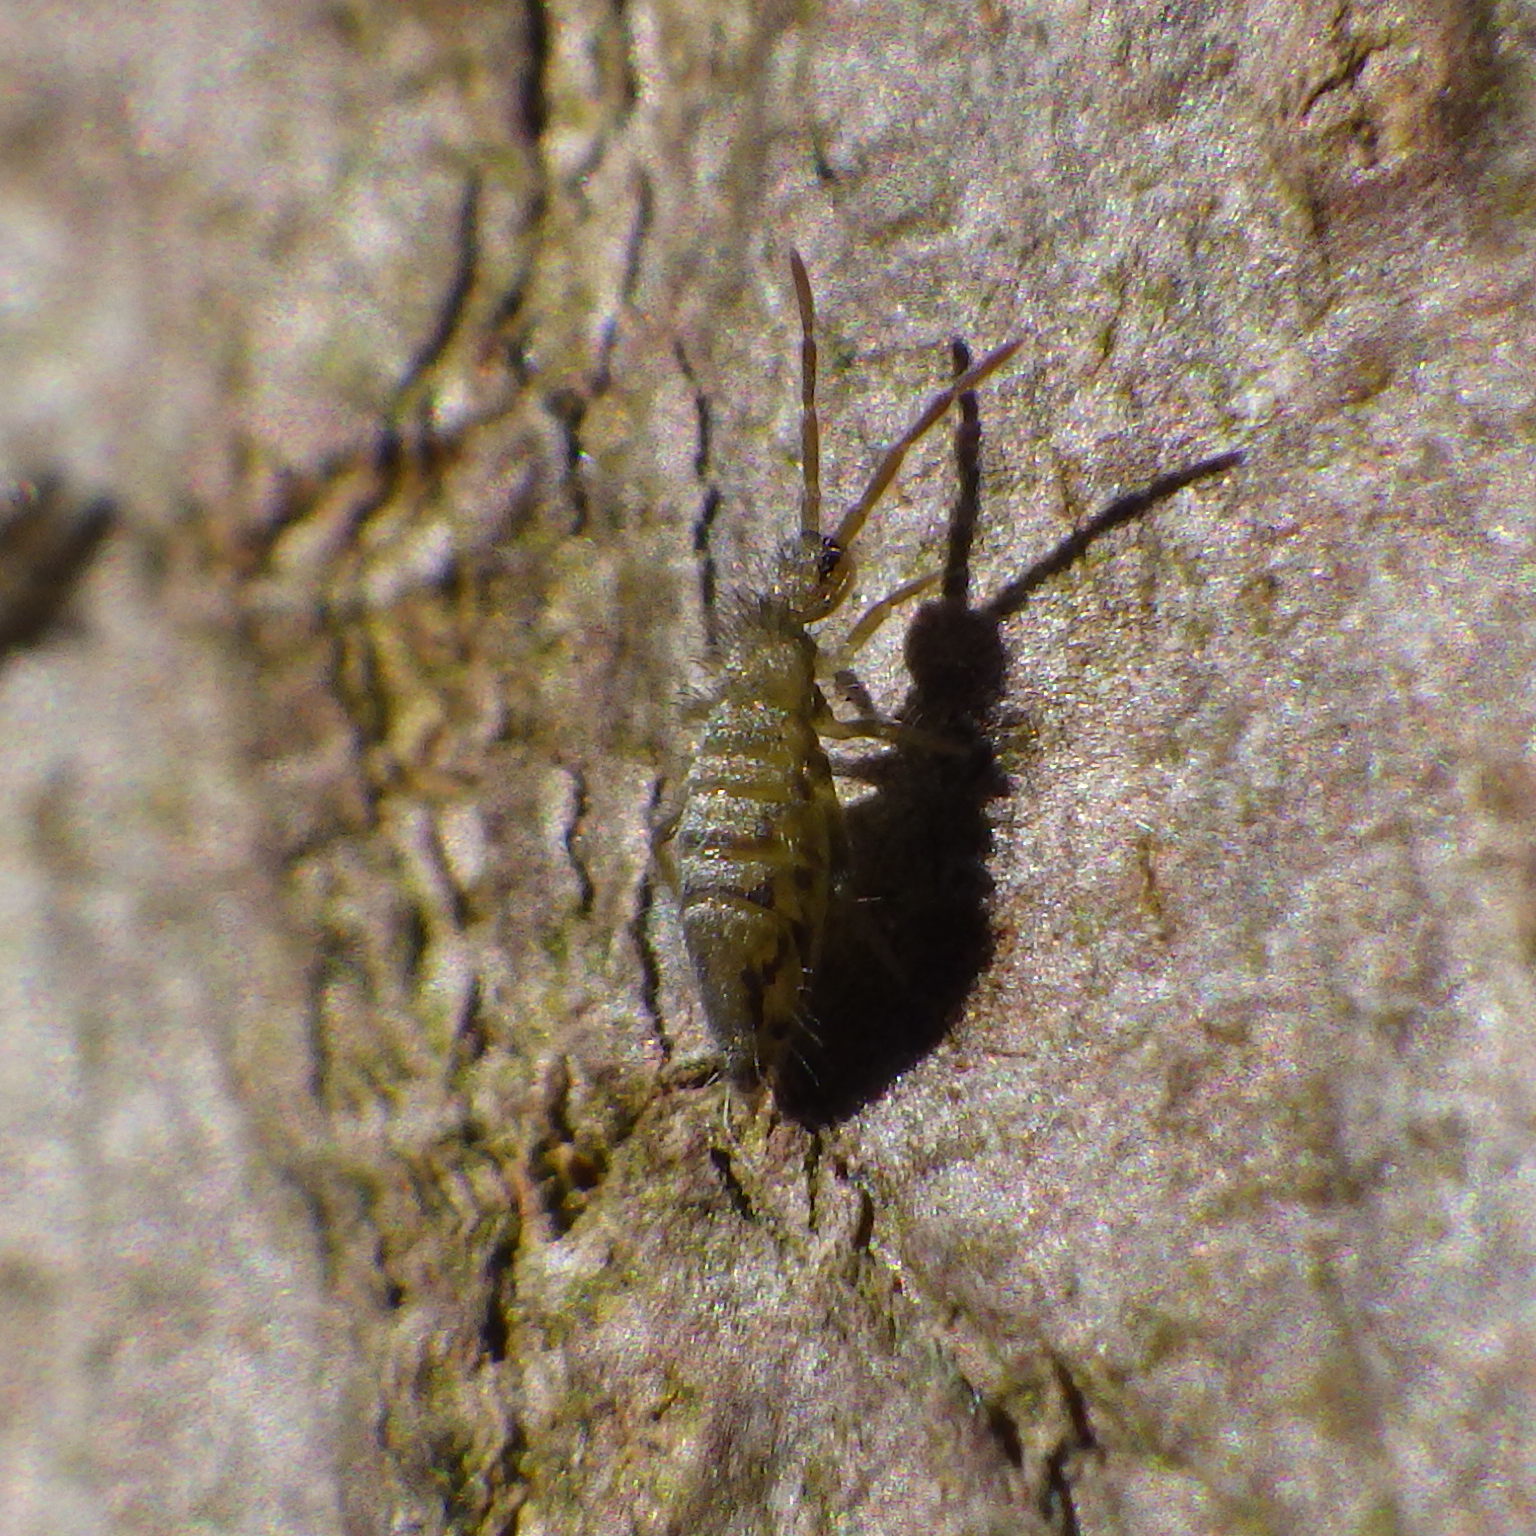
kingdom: Animalia
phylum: Arthropoda
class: Collembola
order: Entomobryomorpha
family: Entomobryidae
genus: Entomobrya
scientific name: Entomobrya nivalis
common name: Cosmopolitan springtail
